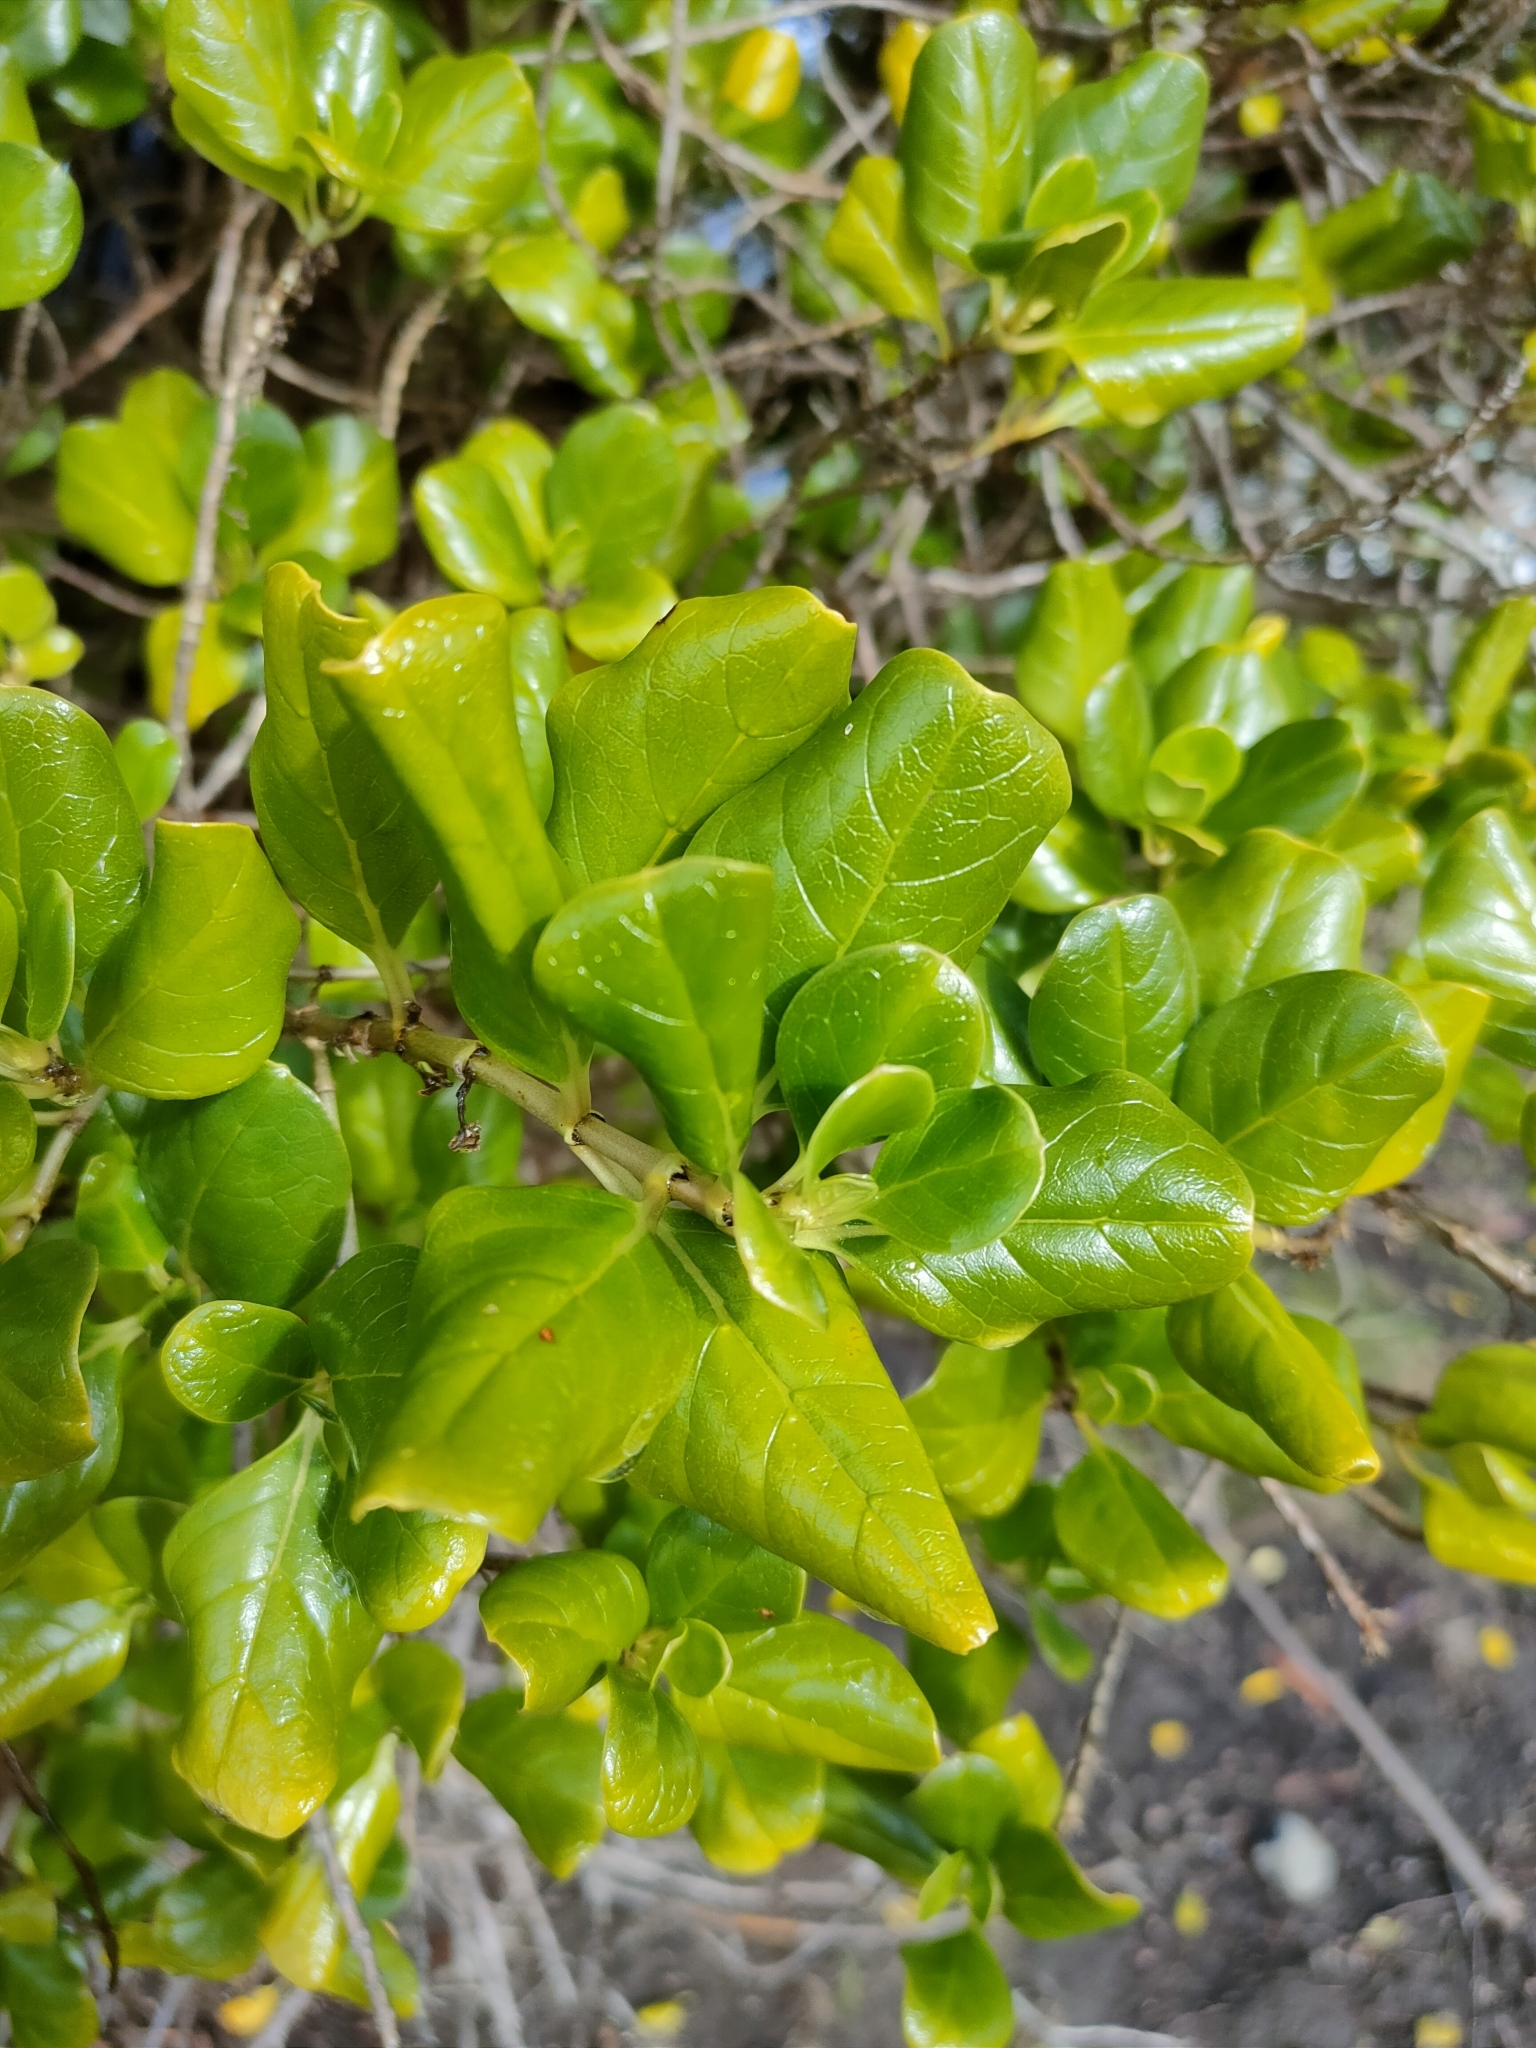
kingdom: Plantae
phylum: Tracheophyta
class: Magnoliopsida
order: Gentianales
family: Rubiaceae
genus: Coprosma
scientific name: Coprosma repens
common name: Tree bedstraw
